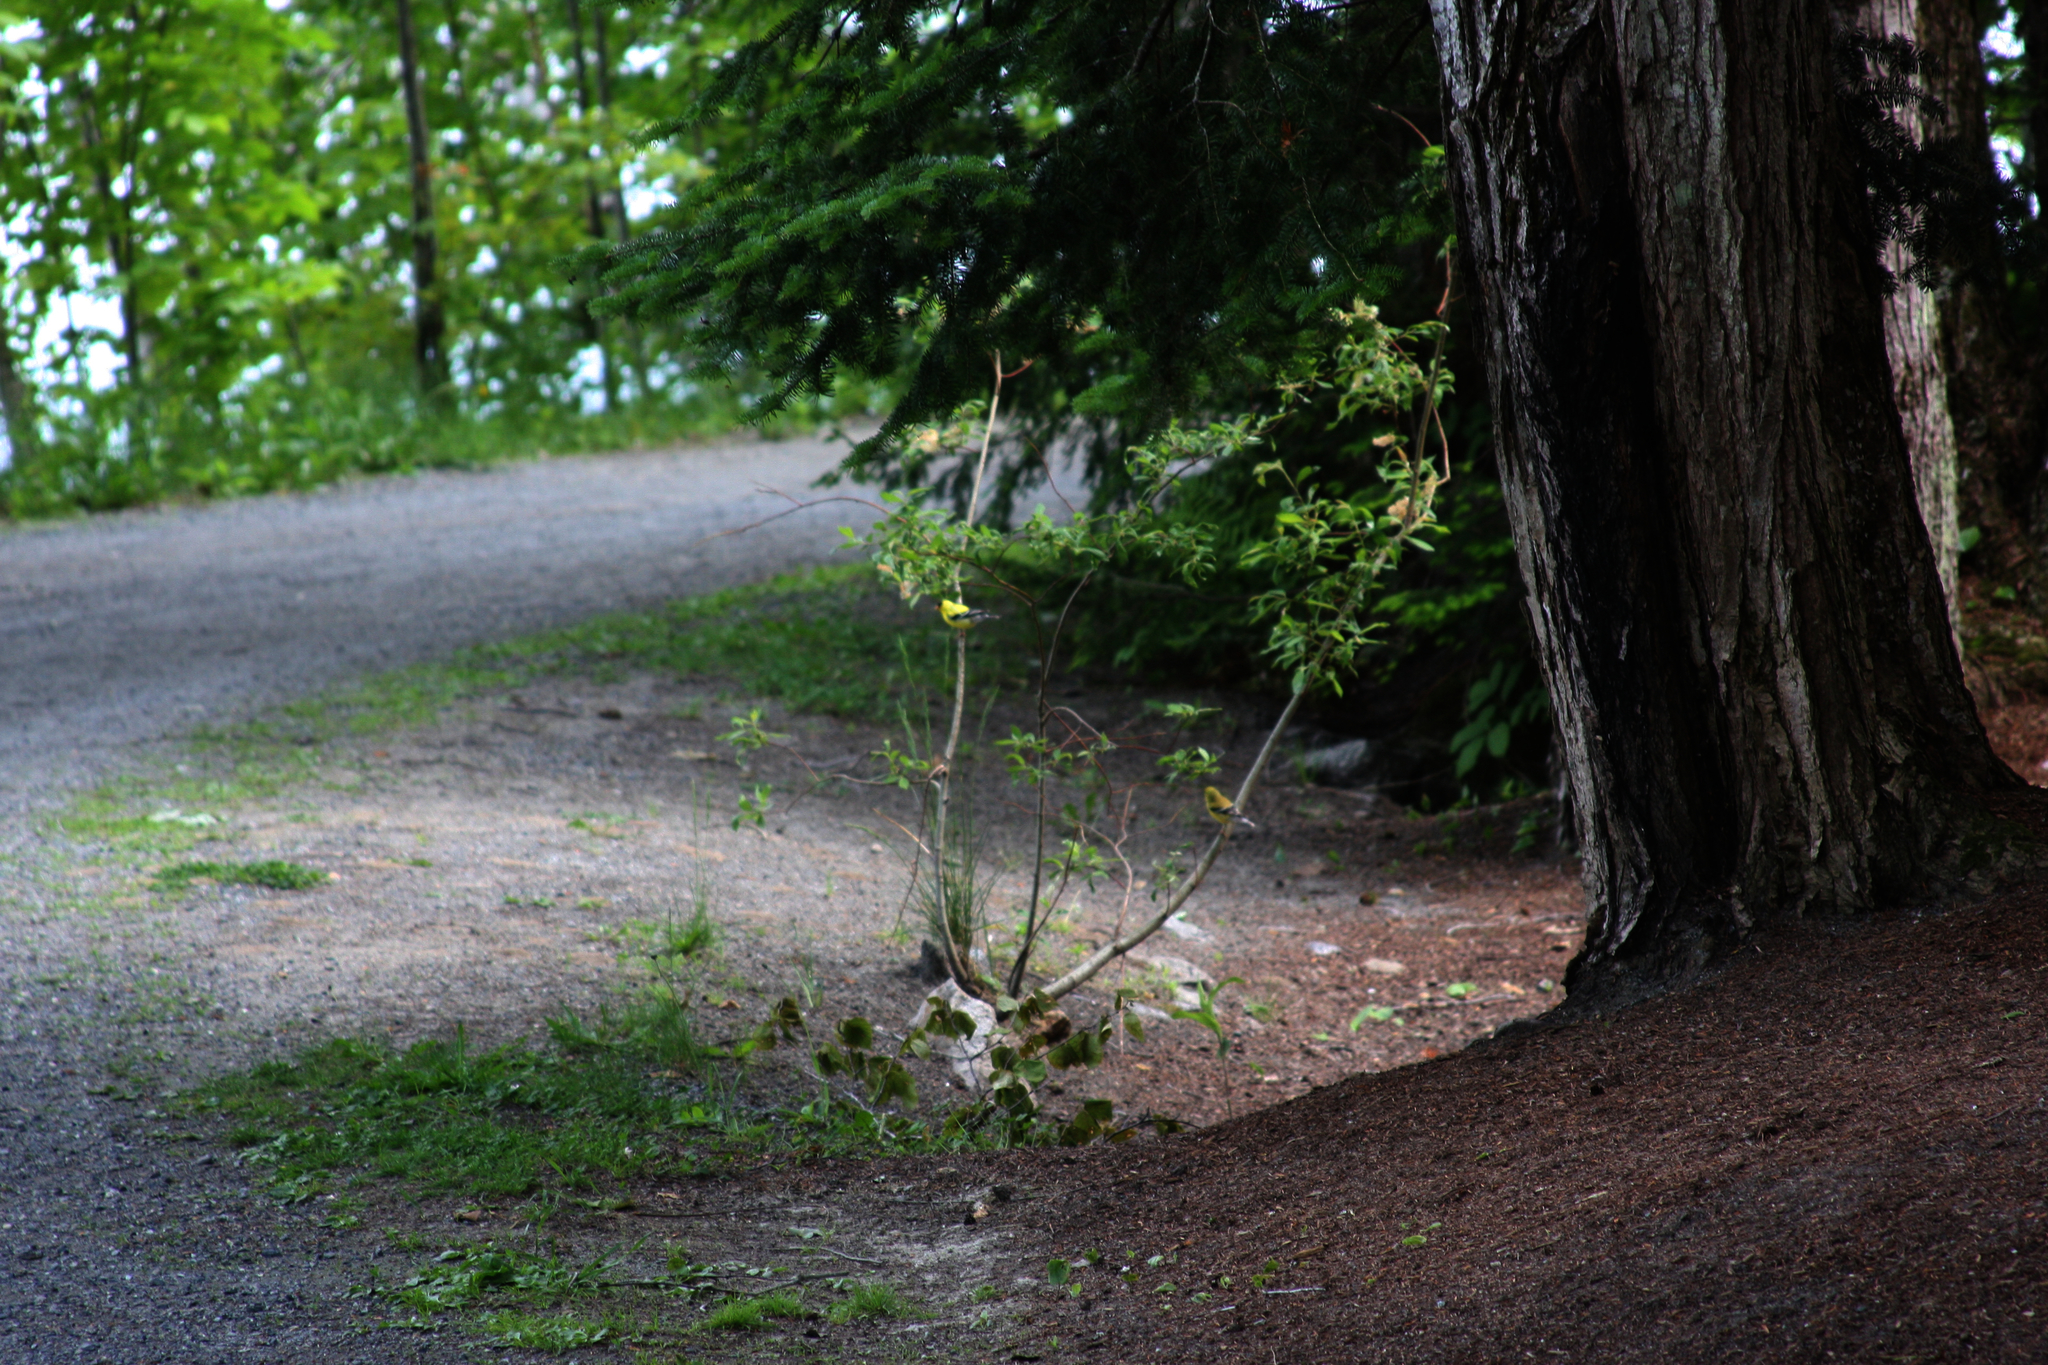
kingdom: Animalia
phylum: Chordata
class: Aves
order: Passeriformes
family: Fringillidae
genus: Spinus
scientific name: Spinus tristis
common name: American goldfinch
